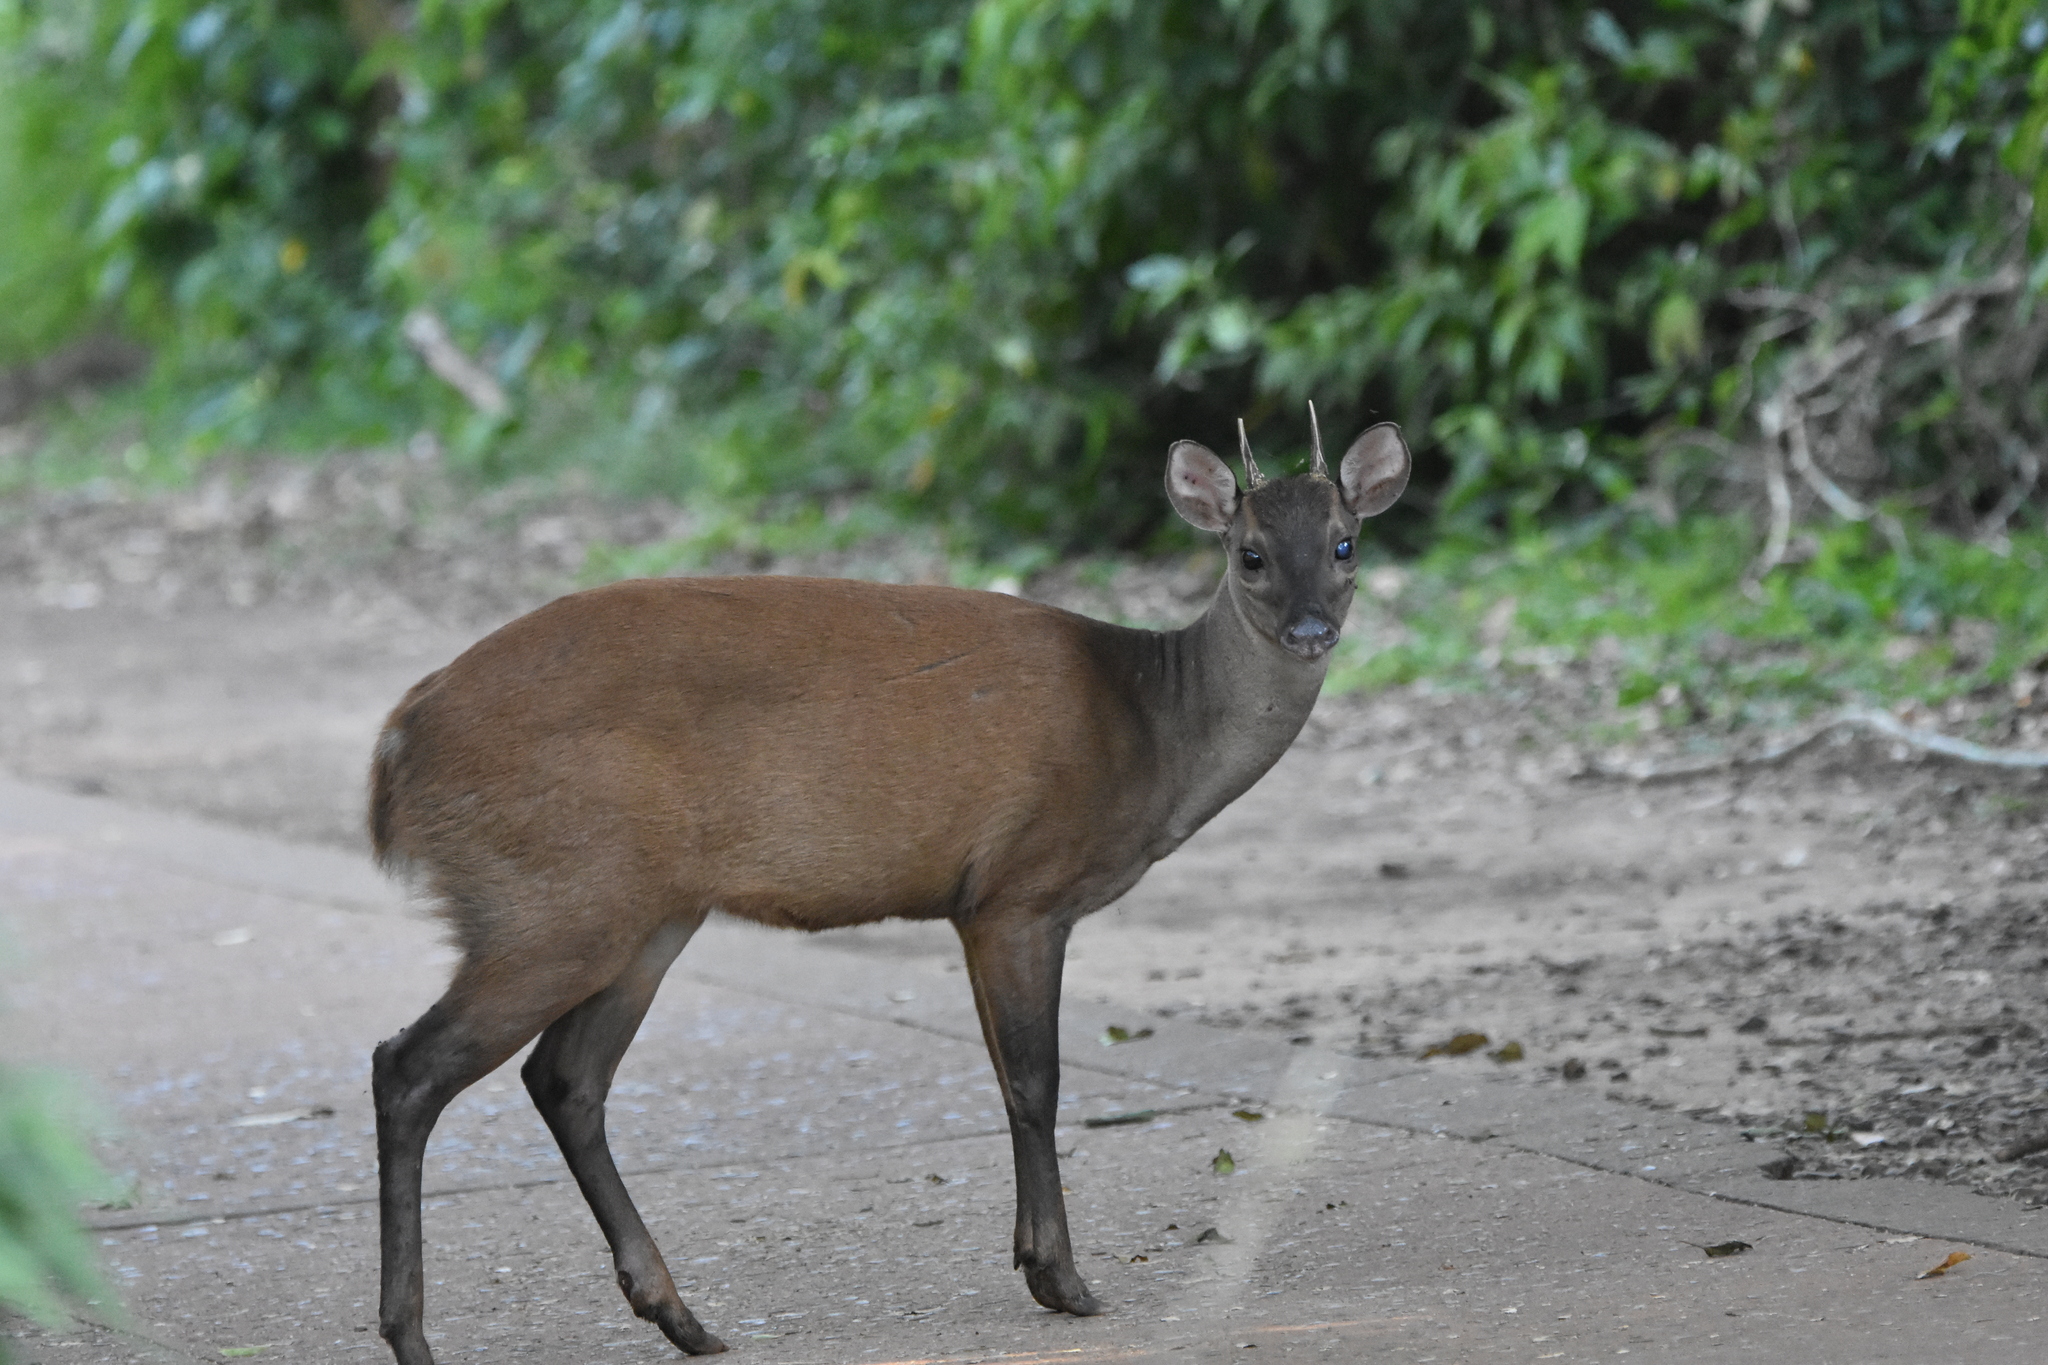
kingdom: Animalia
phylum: Chordata
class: Mammalia
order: Artiodactyla
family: Cervidae
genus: Mazama
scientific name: Mazama americana
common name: Red brocket
